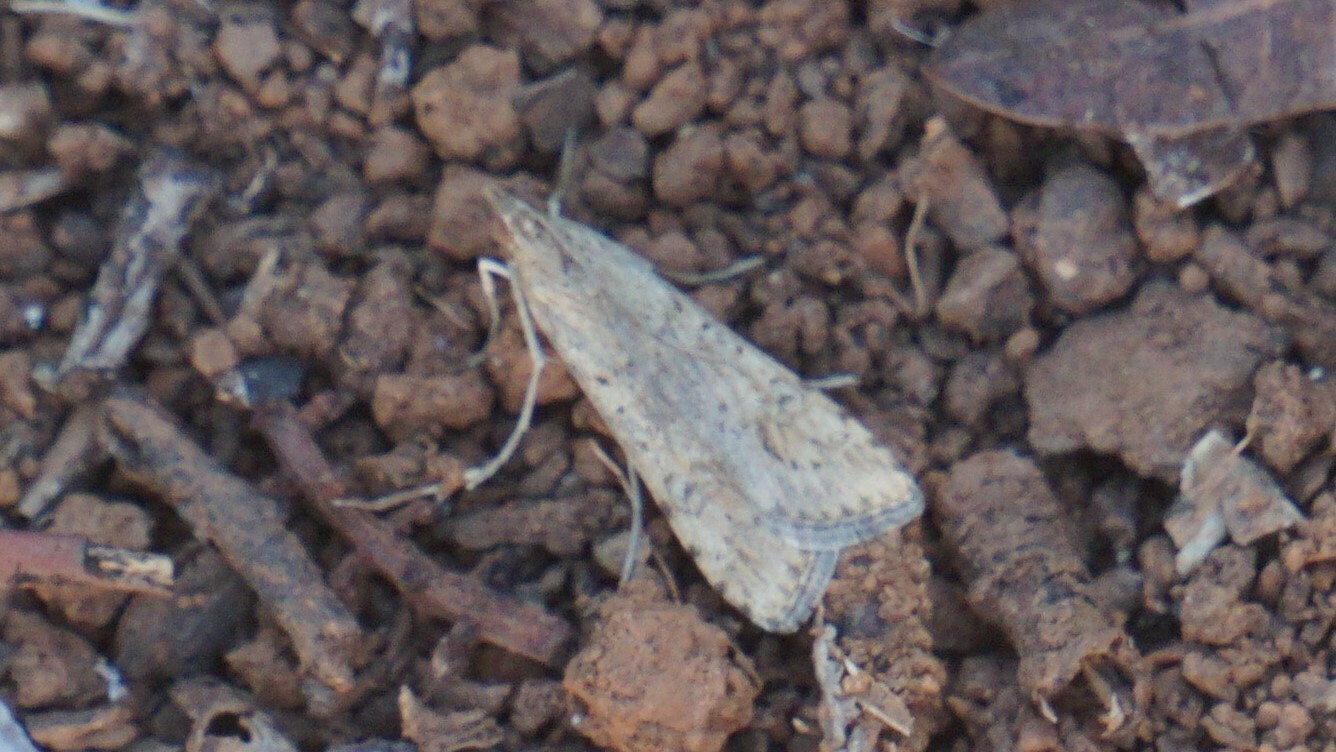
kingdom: Animalia
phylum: Arthropoda
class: Insecta
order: Lepidoptera
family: Crambidae
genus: Nomophila
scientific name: Nomophila noctuella
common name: Rush veneer
